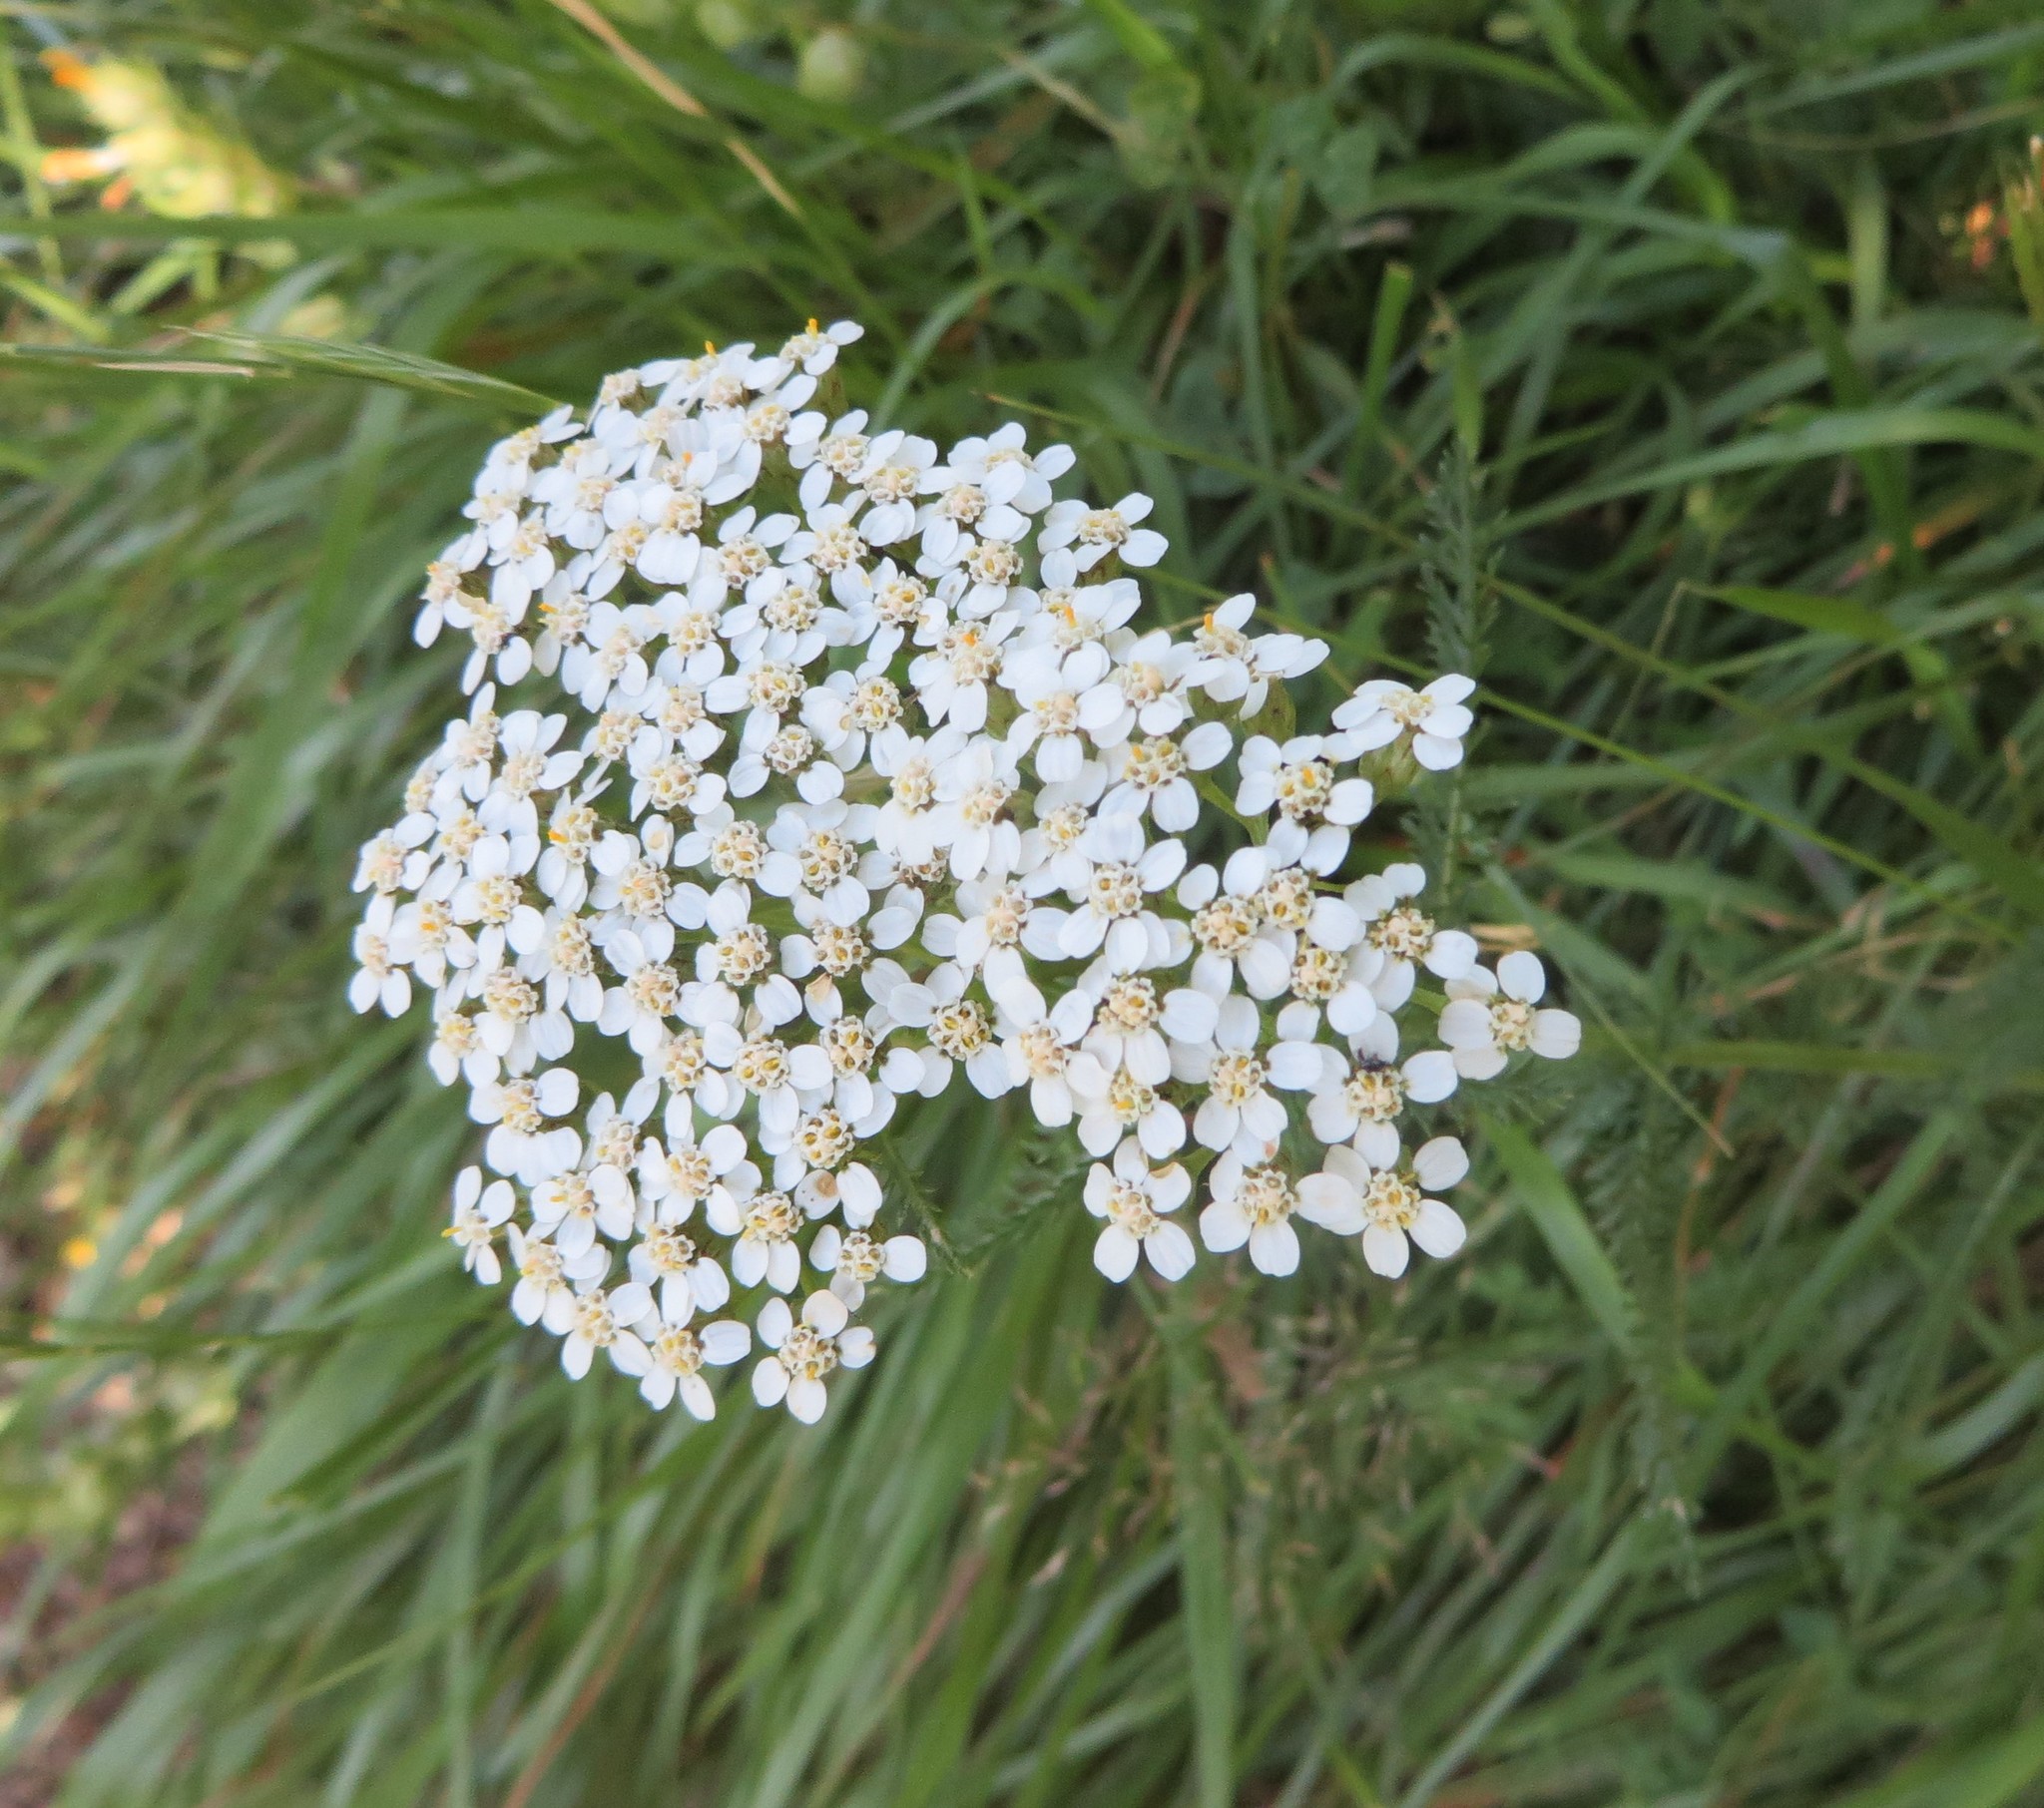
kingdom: Plantae
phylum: Tracheophyta
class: Magnoliopsida
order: Asterales
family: Asteraceae
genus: Achillea
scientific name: Achillea millefolium
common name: Yarrow
